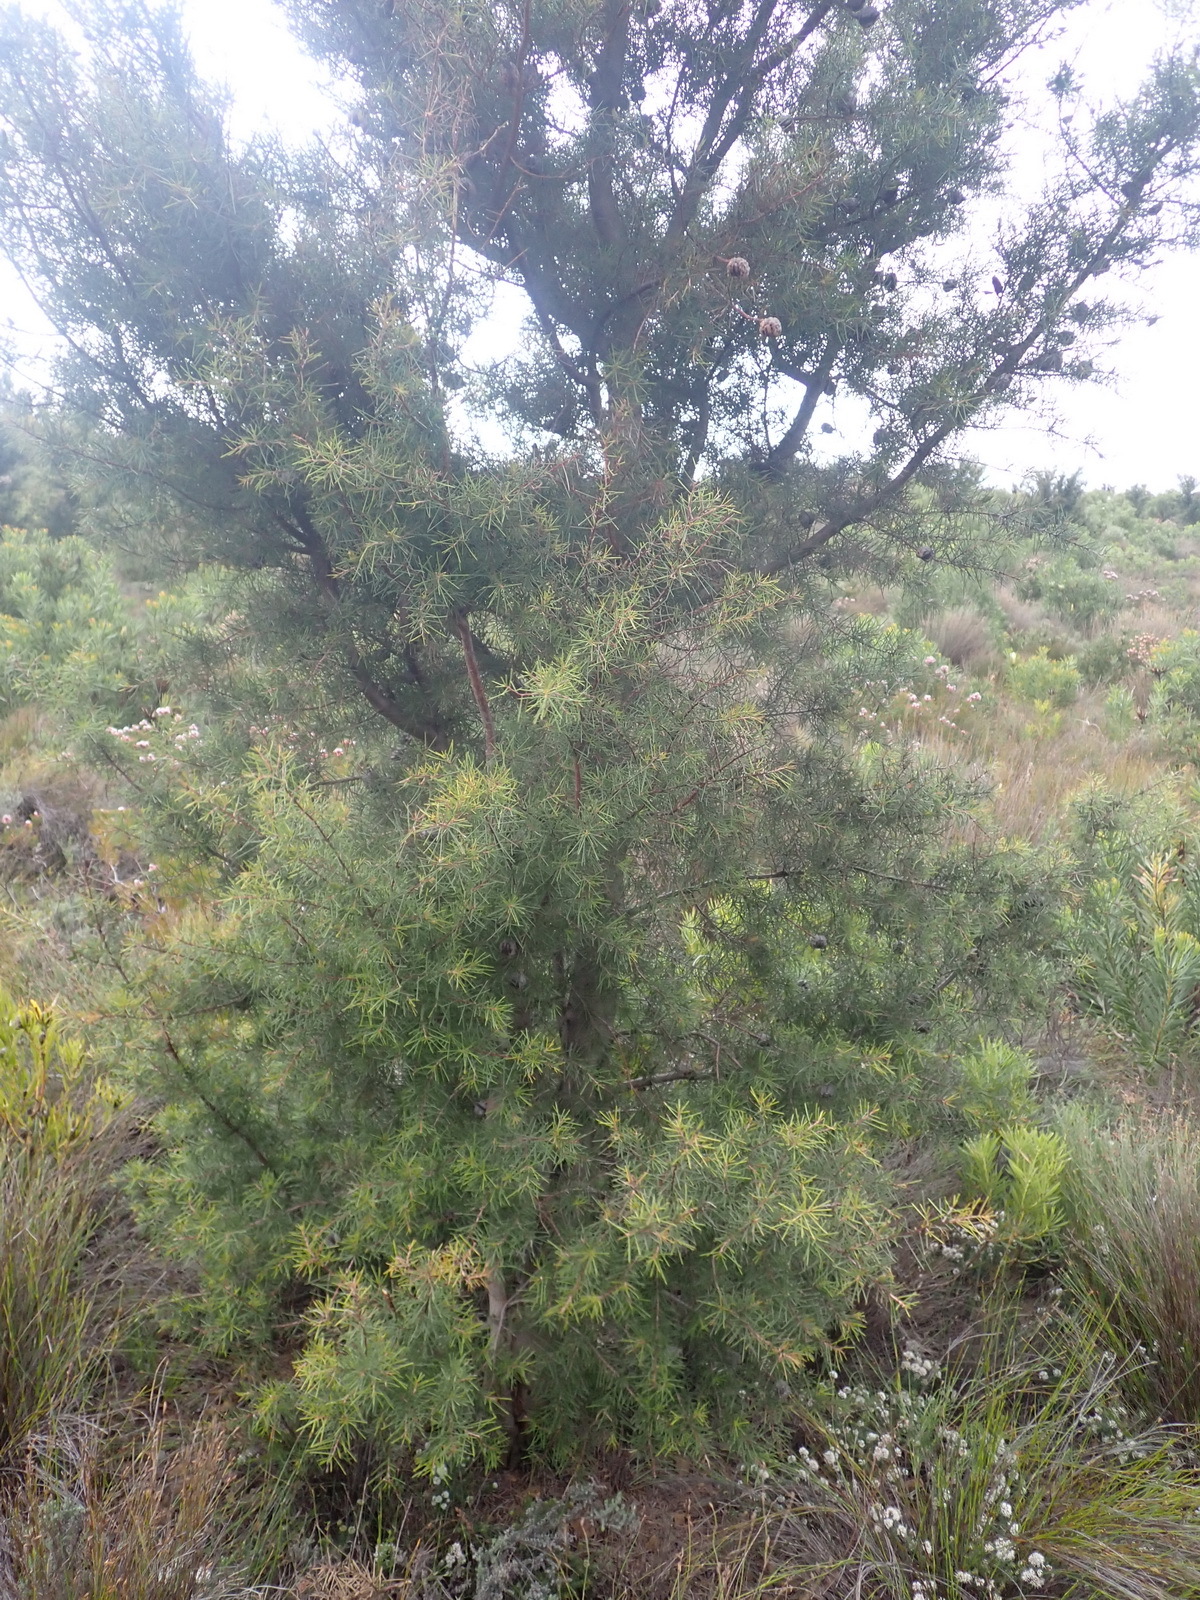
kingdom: Plantae
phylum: Tracheophyta
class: Magnoliopsida
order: Proteales
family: Proteaceae
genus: Hakea
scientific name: Hakea sericea
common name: Needle bush
